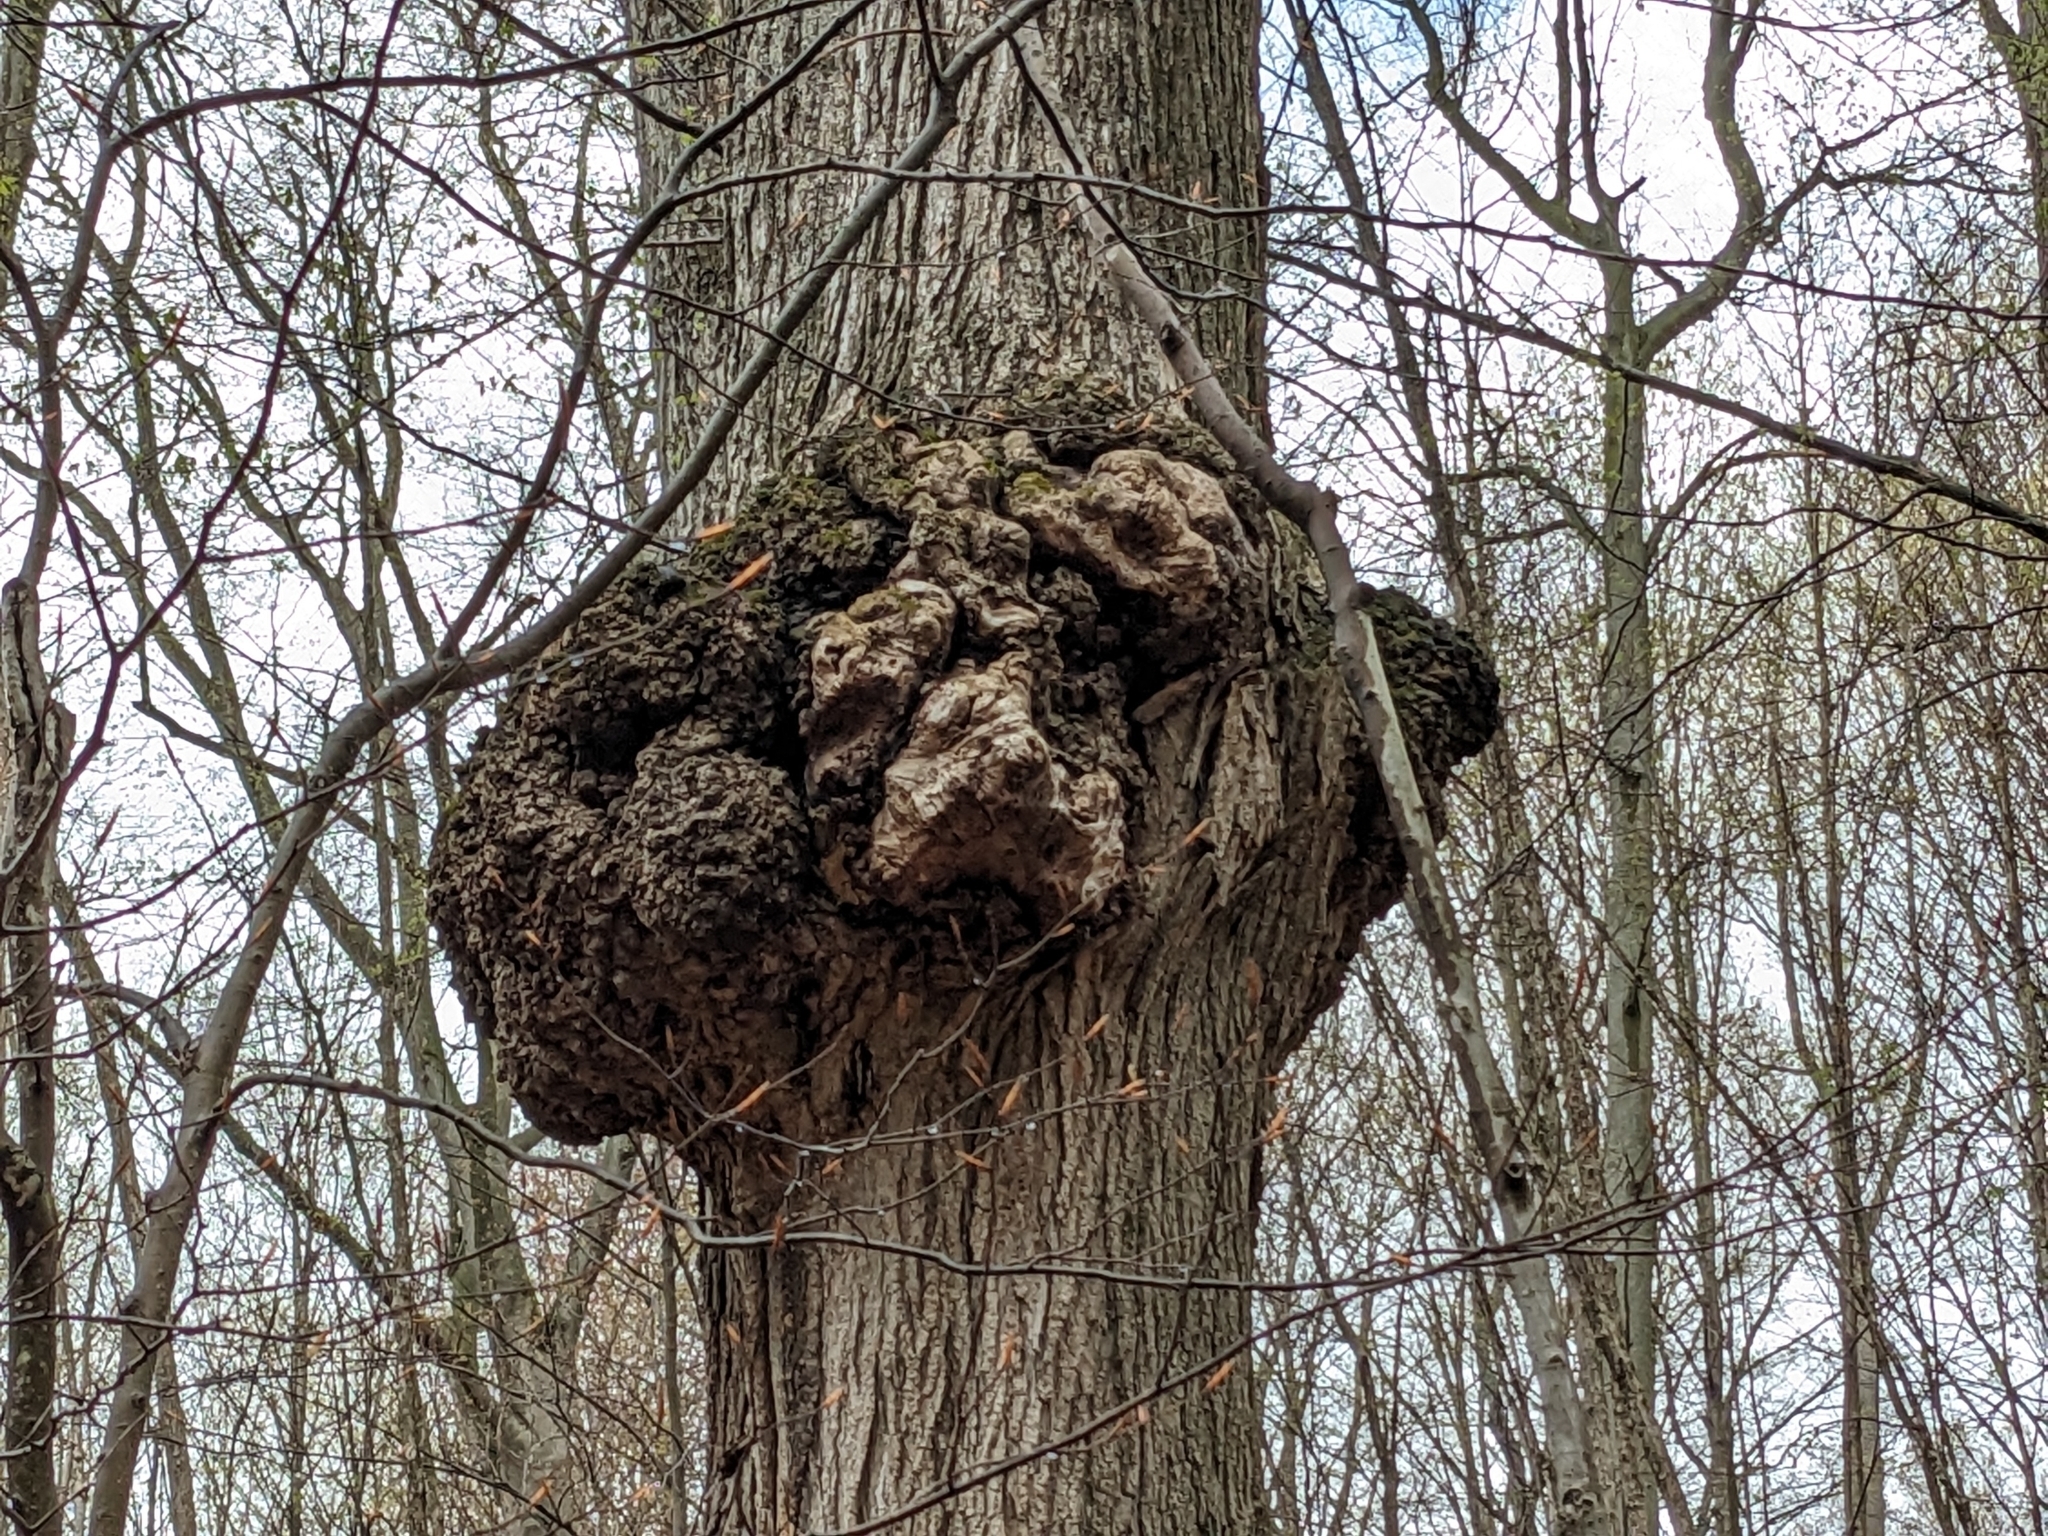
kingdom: Bacteria
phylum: Proteobacteria
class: Alphaproteobacteria
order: Rhizobiales
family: Rhizobiaceae
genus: Rhizobium
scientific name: Rhizobium Agrobacterium radiobacter
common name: Bacterial crown gall
